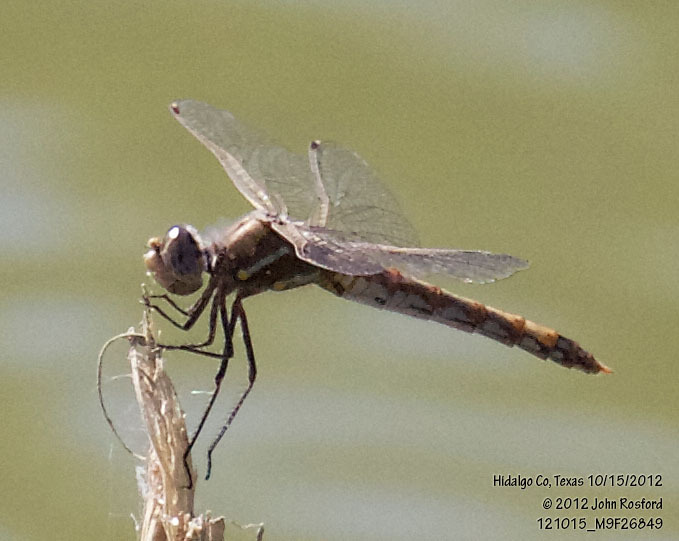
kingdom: Animalia
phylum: Arthropoda
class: Insecta
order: Odonata
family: Libellulidae
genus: Sympetrum
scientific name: Sympetrum corruptum
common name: Variegated meadowhawk
